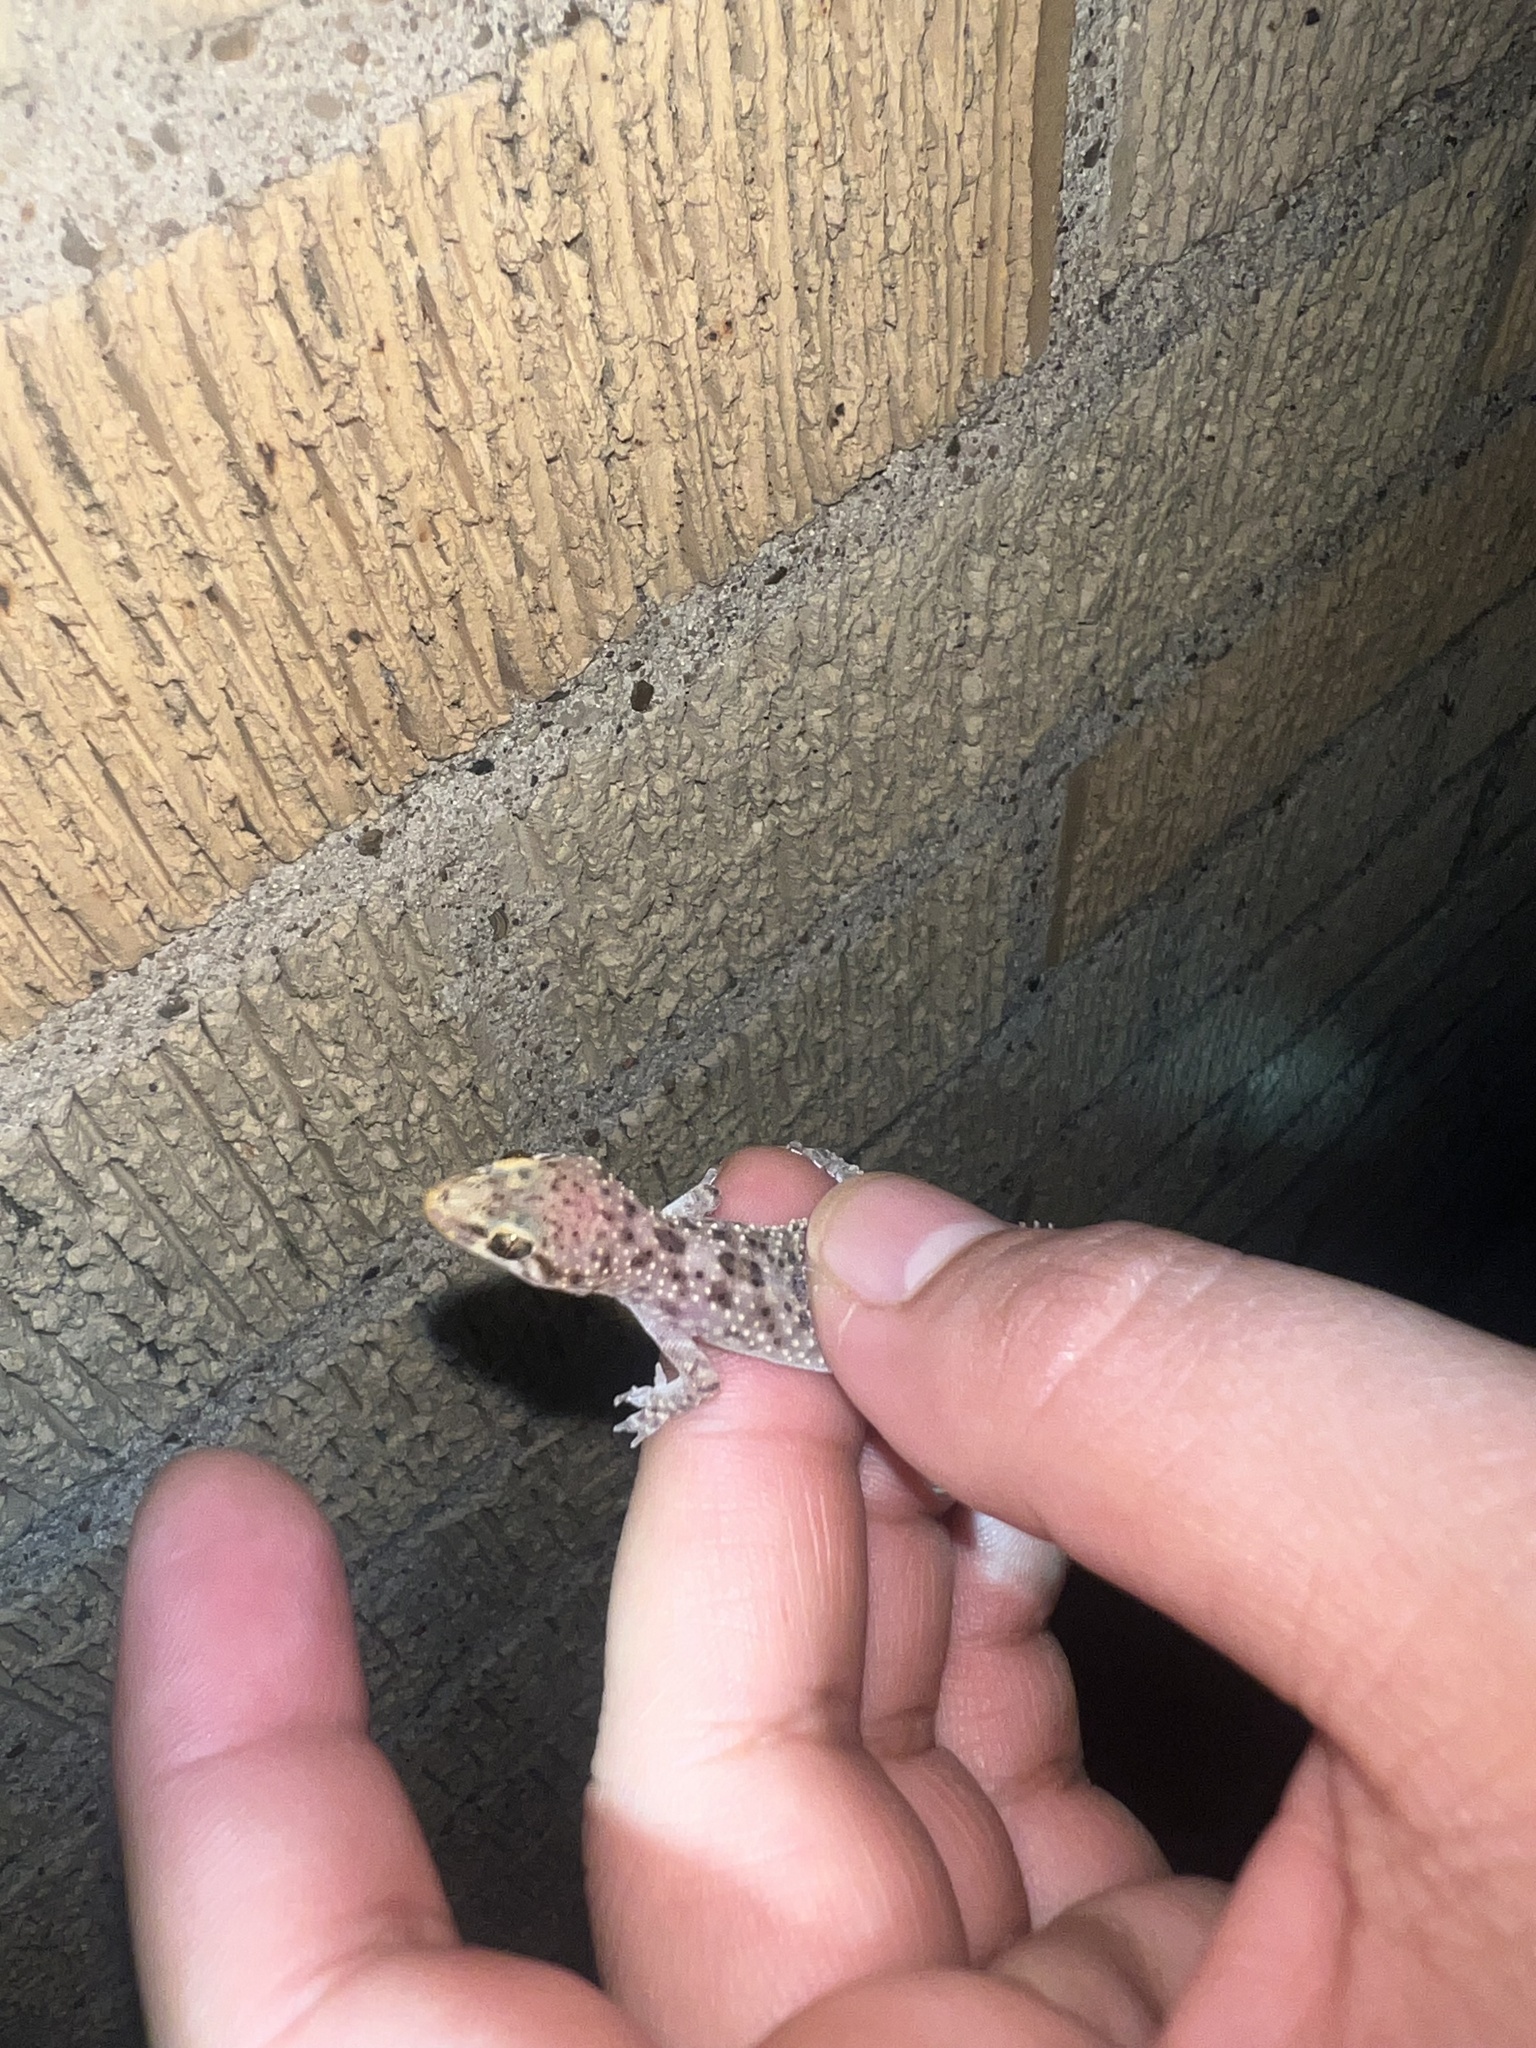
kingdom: Animalia
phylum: Chordata
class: Squamata
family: Gekkonidae
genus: Hemidactylus
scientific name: Hemidactylus turcicus
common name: Turkish gecko
